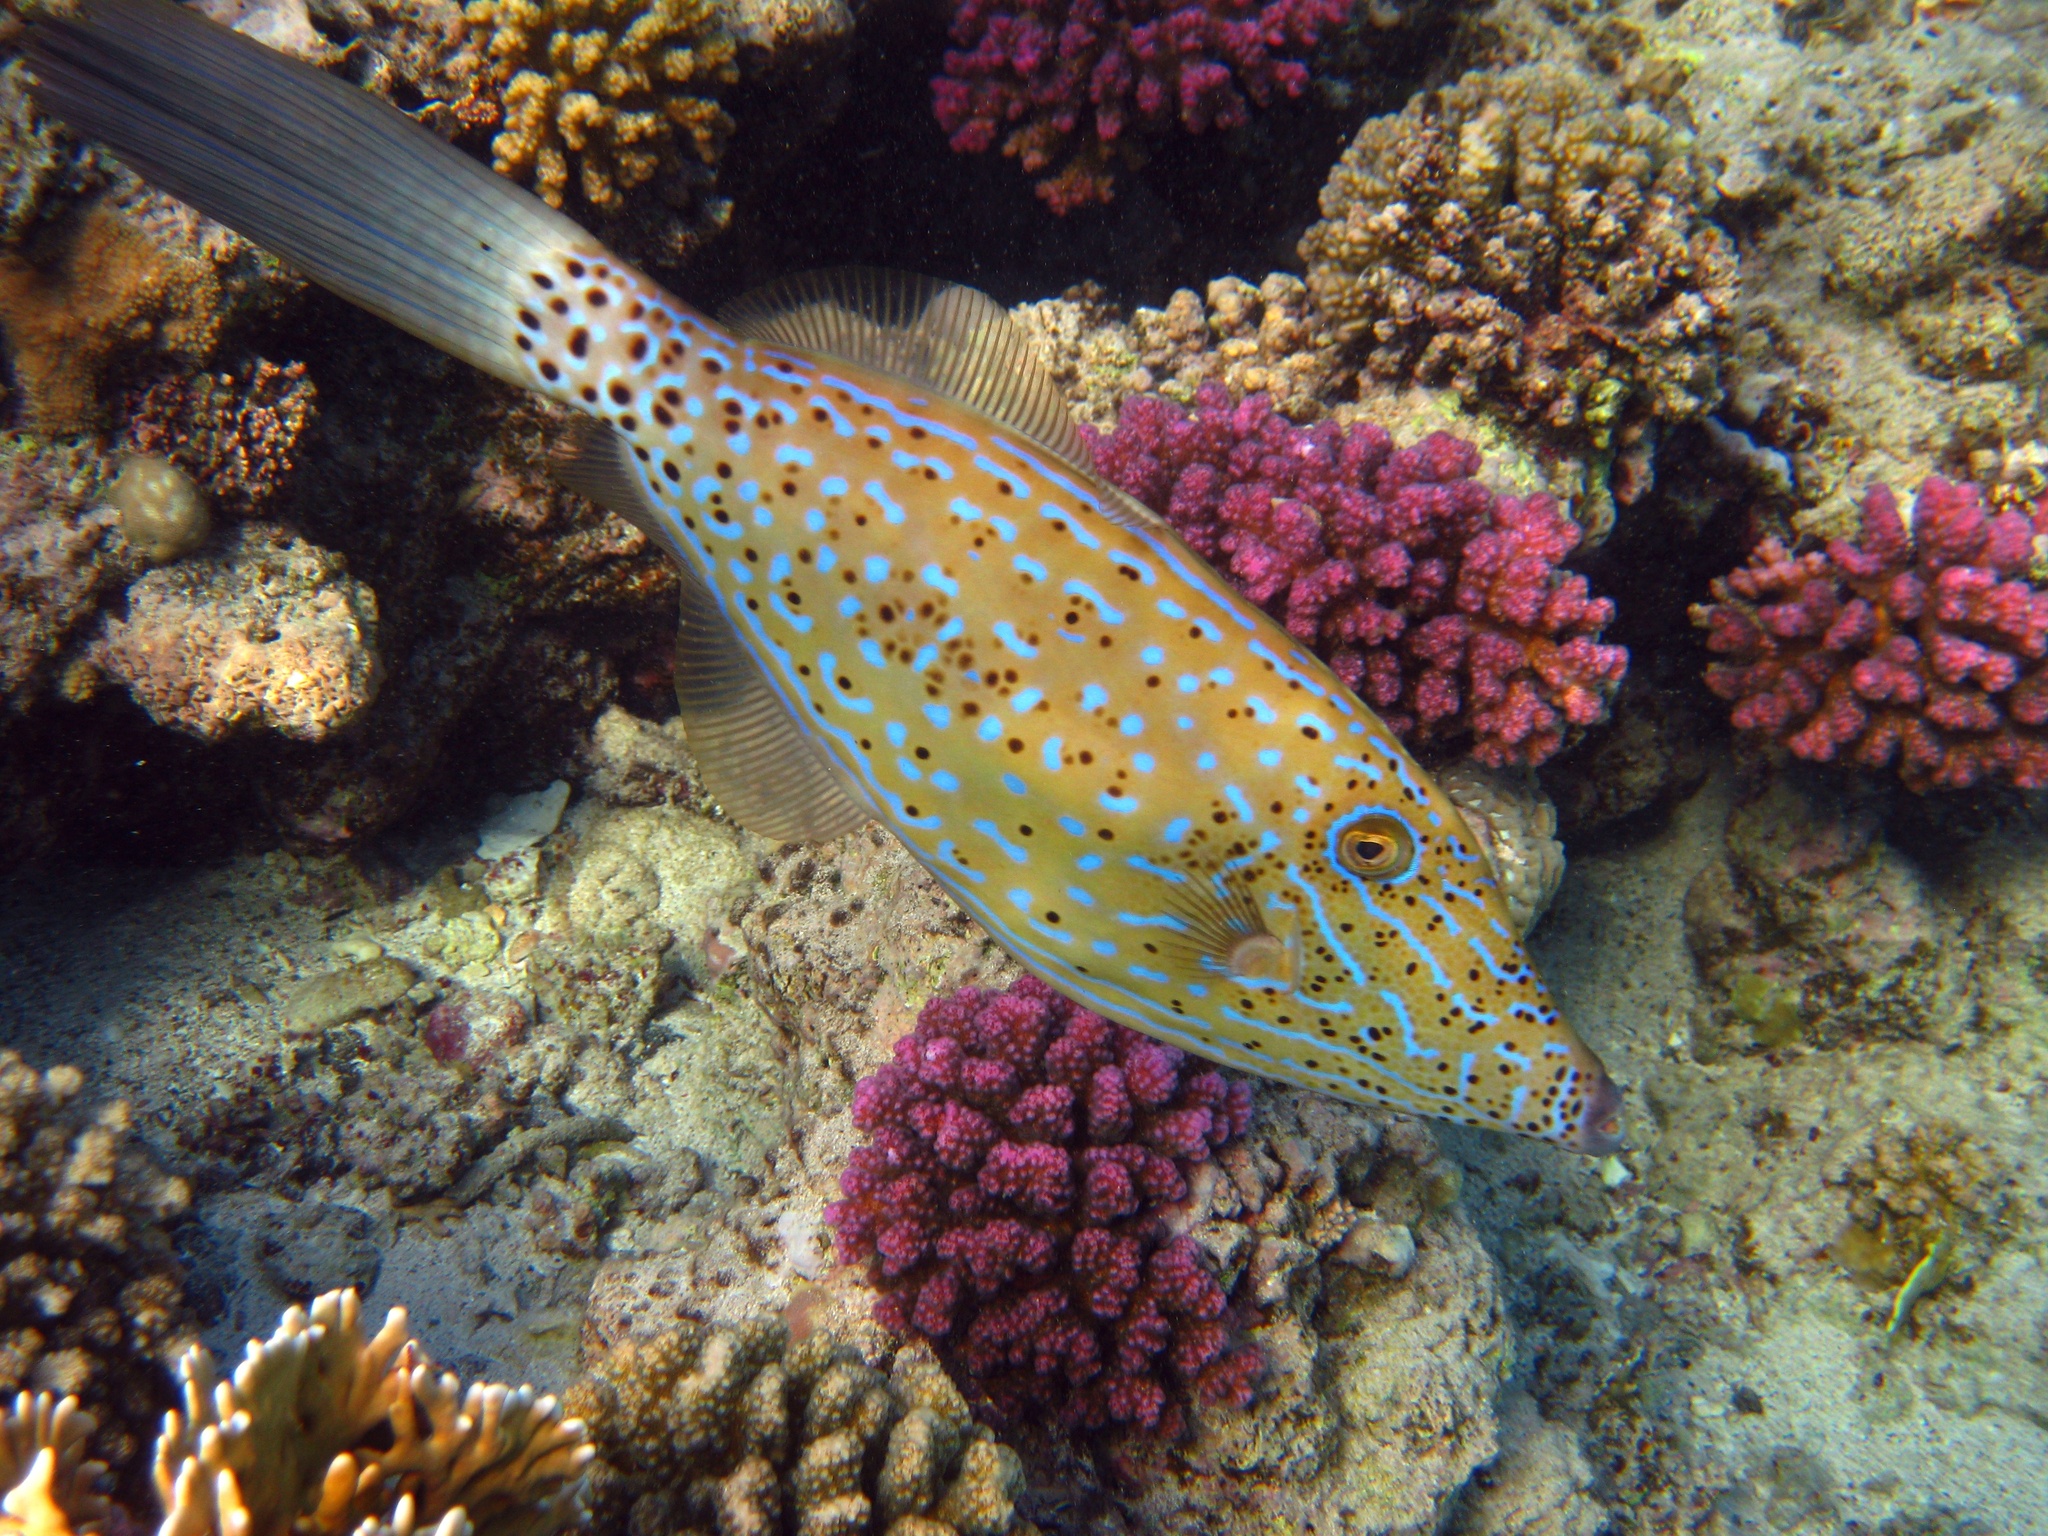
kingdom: Animalia
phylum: Chordata
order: Tetraodontiformes
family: Monacanthidae
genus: Aluterus
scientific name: Aluterus scriptus
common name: Scribbled leatherjacket filefish
